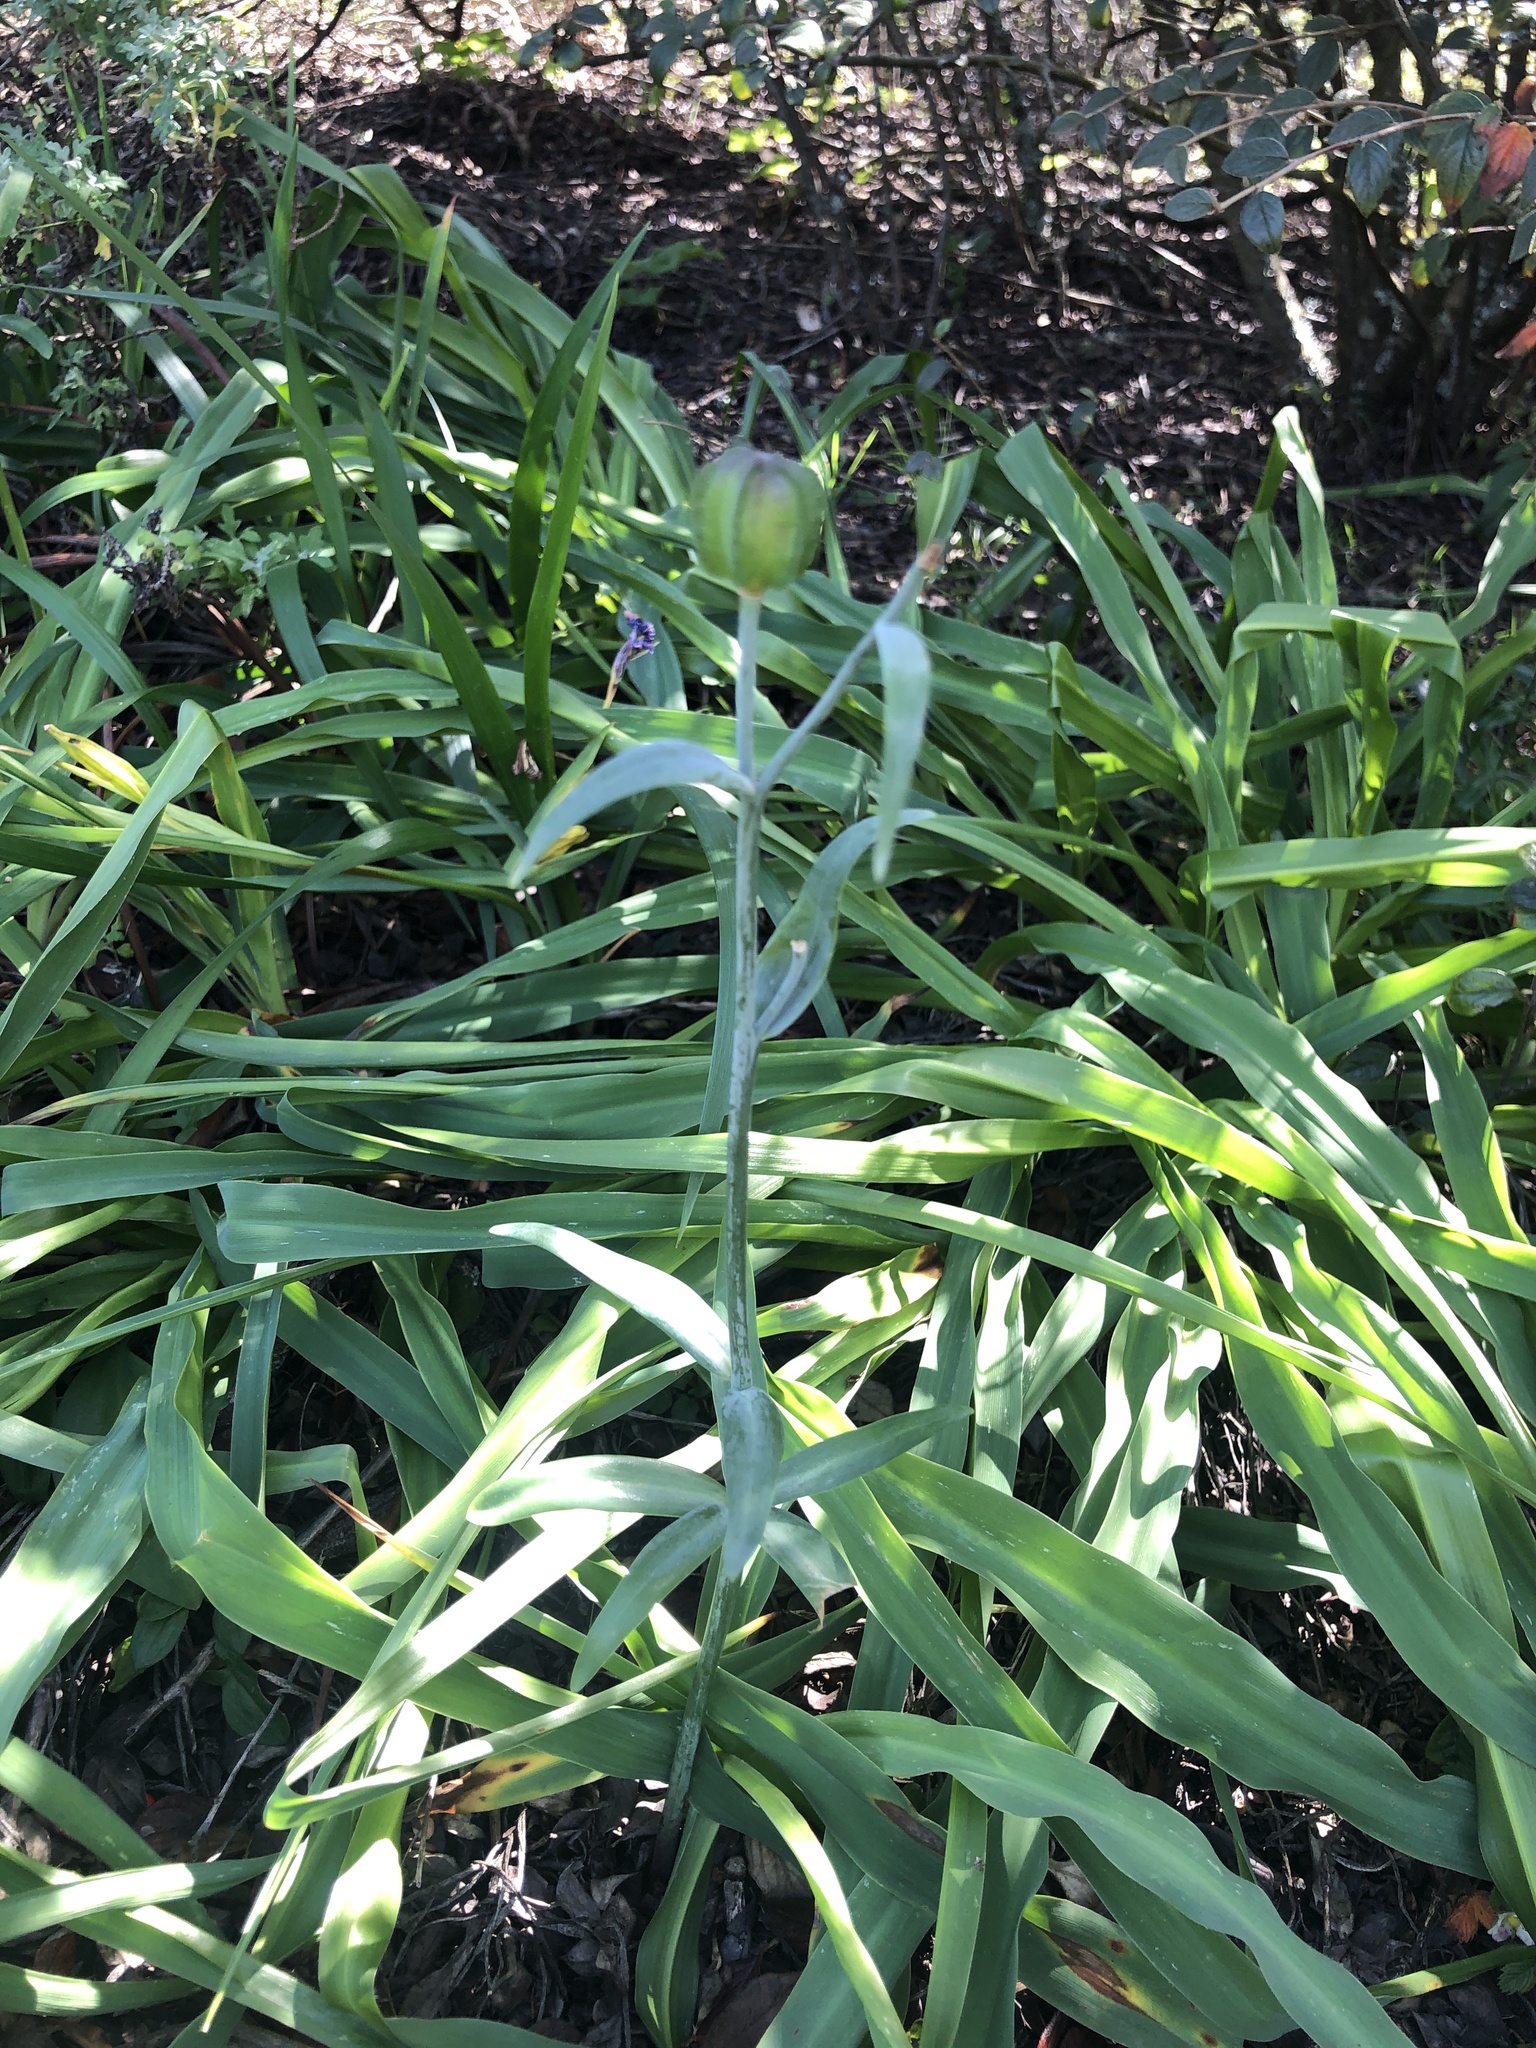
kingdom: Plantae
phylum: Tracheophyta
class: Liliopsida
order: Liliales
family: Liliaceae
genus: Fritillaria
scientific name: Fritillaria affinis
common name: Ojai fritillary
